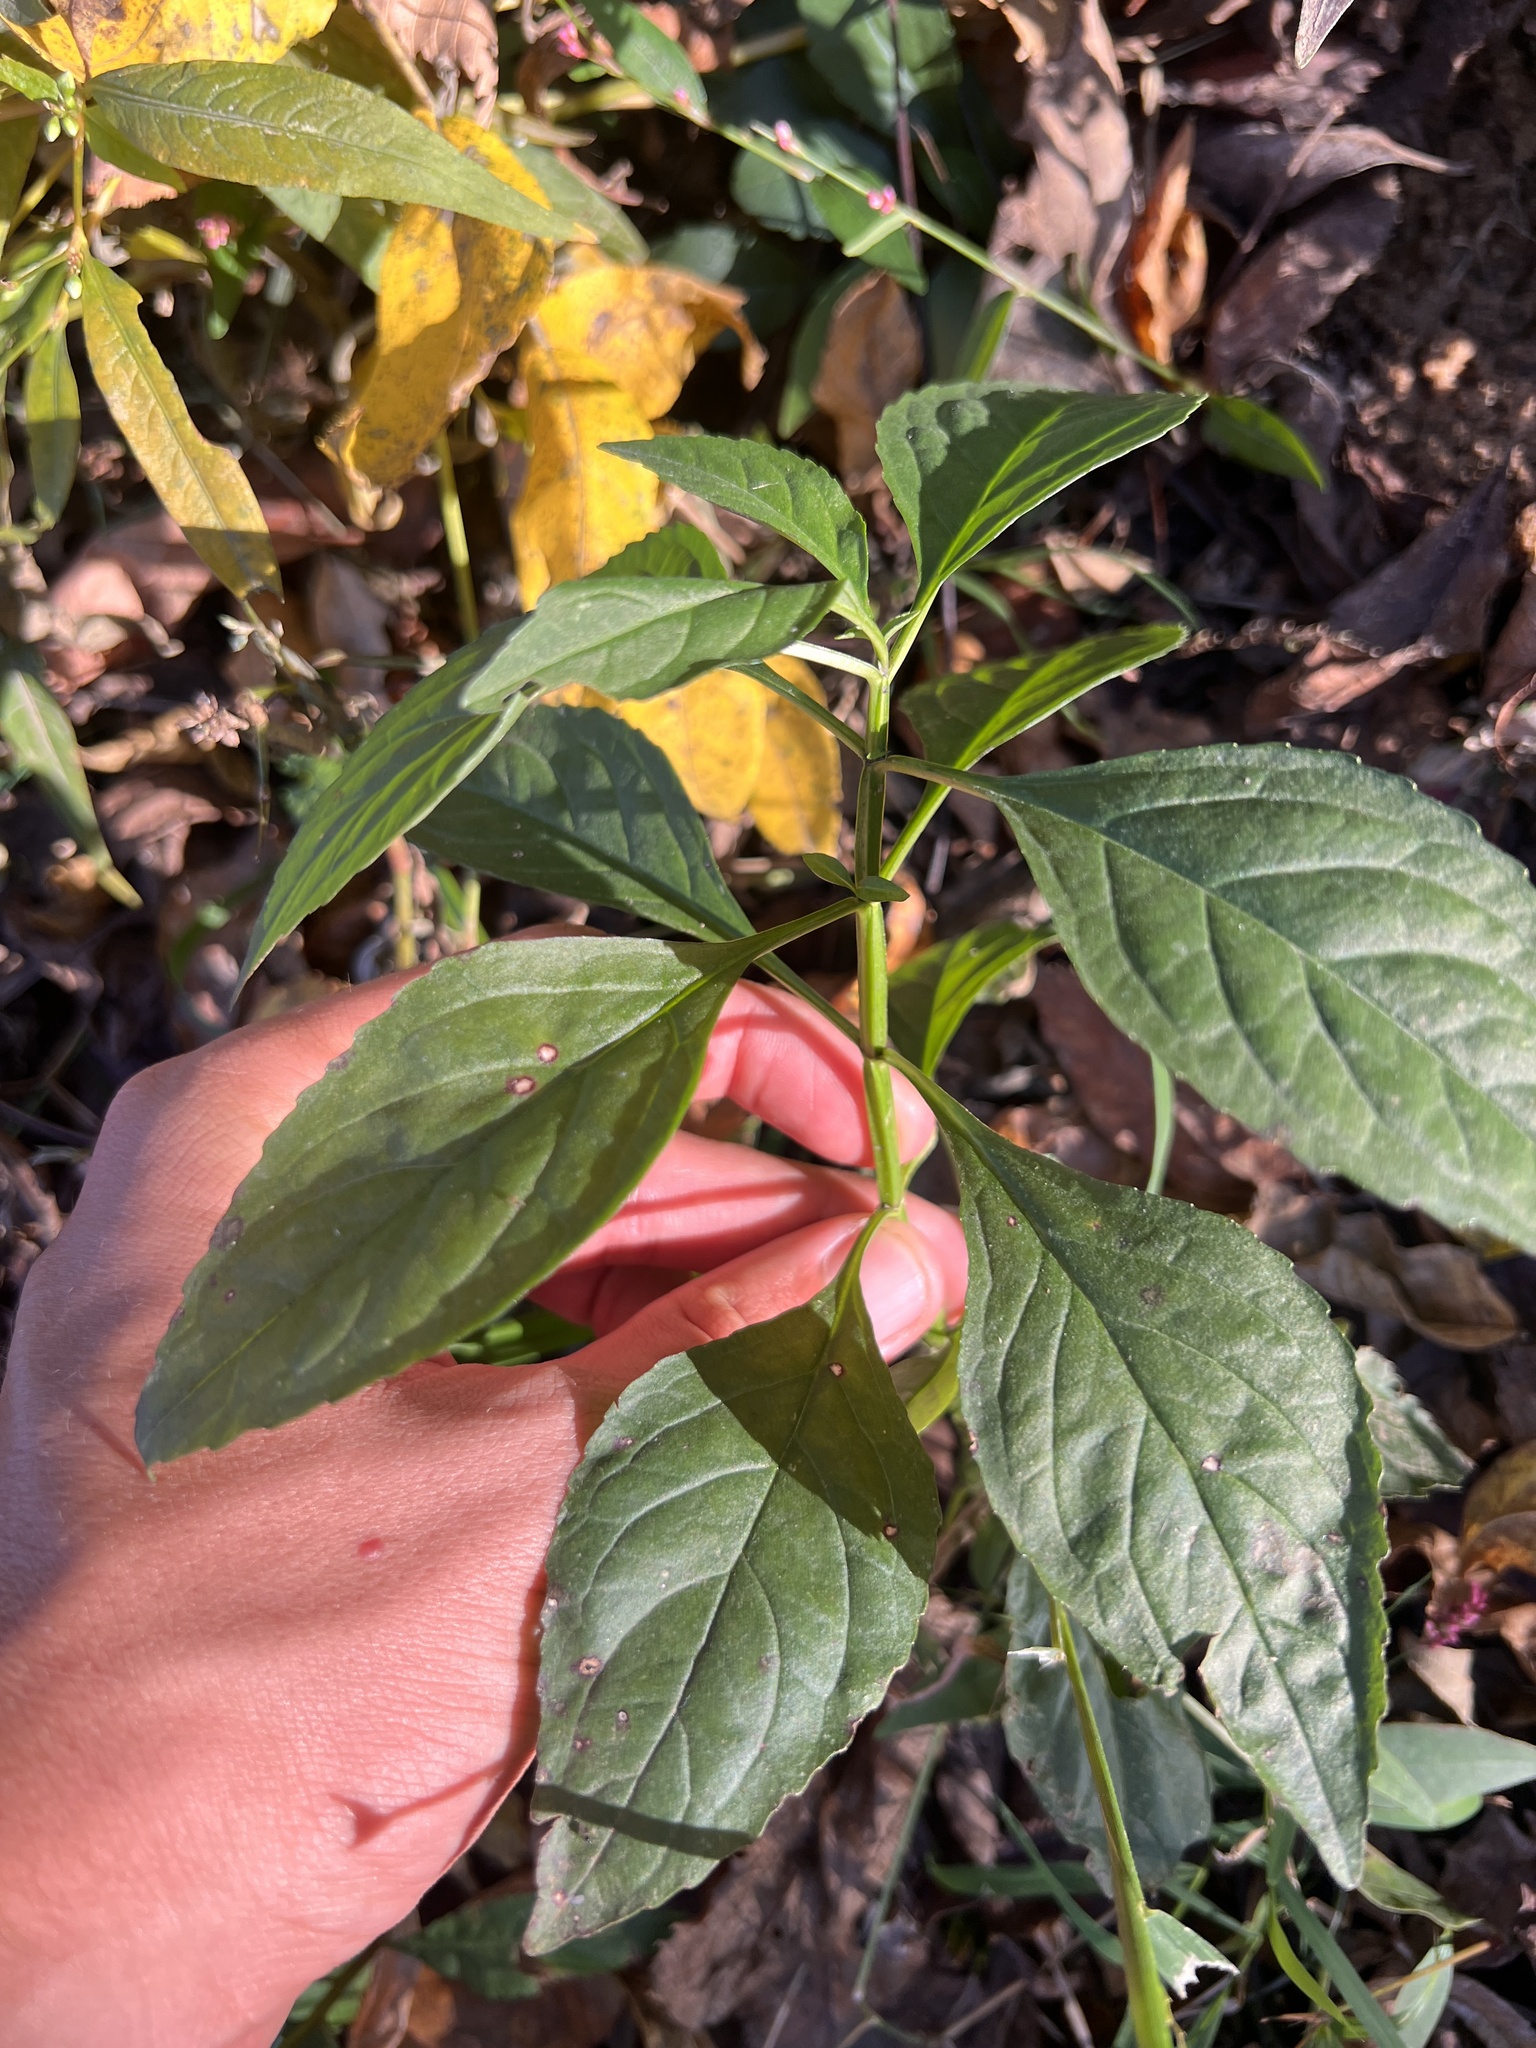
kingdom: Plantae
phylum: Tracheophyta
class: Magnoliopsida
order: Lamiales
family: Phrymaceae
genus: Mimulus
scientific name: Mimulus alatus
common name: Sharp-wing monkey-flower
